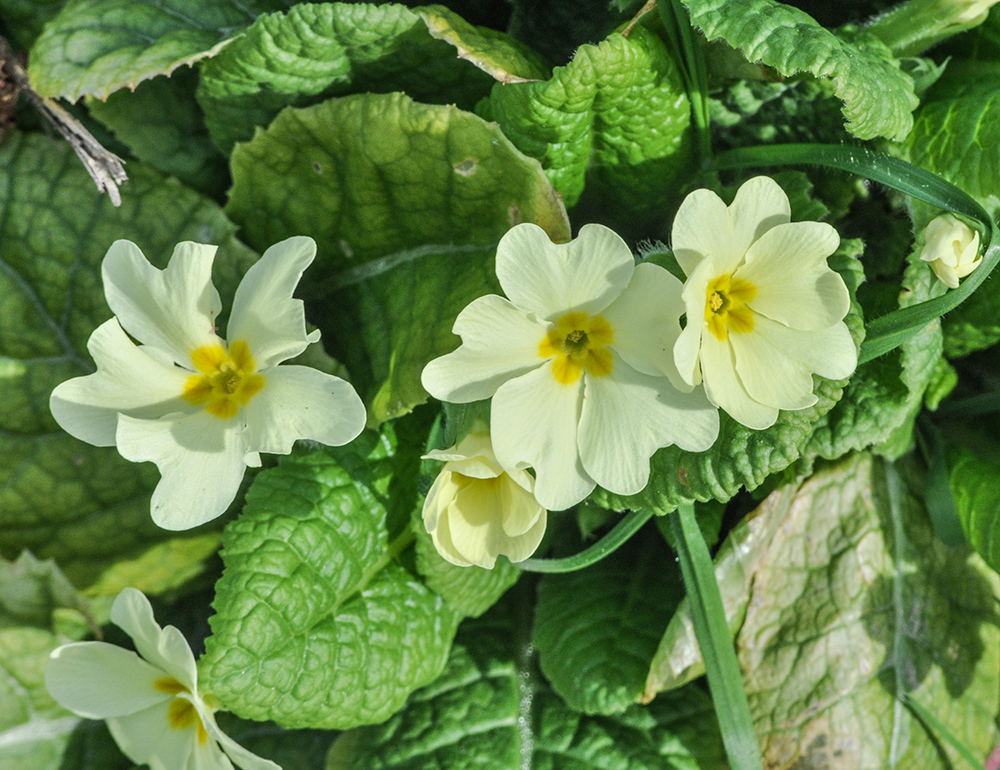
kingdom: Plantae
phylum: Tracheophyta
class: Magnoliopsida
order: Ericales
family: Primulaceae
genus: Primula
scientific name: Primula vulgaris
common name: Primrose
